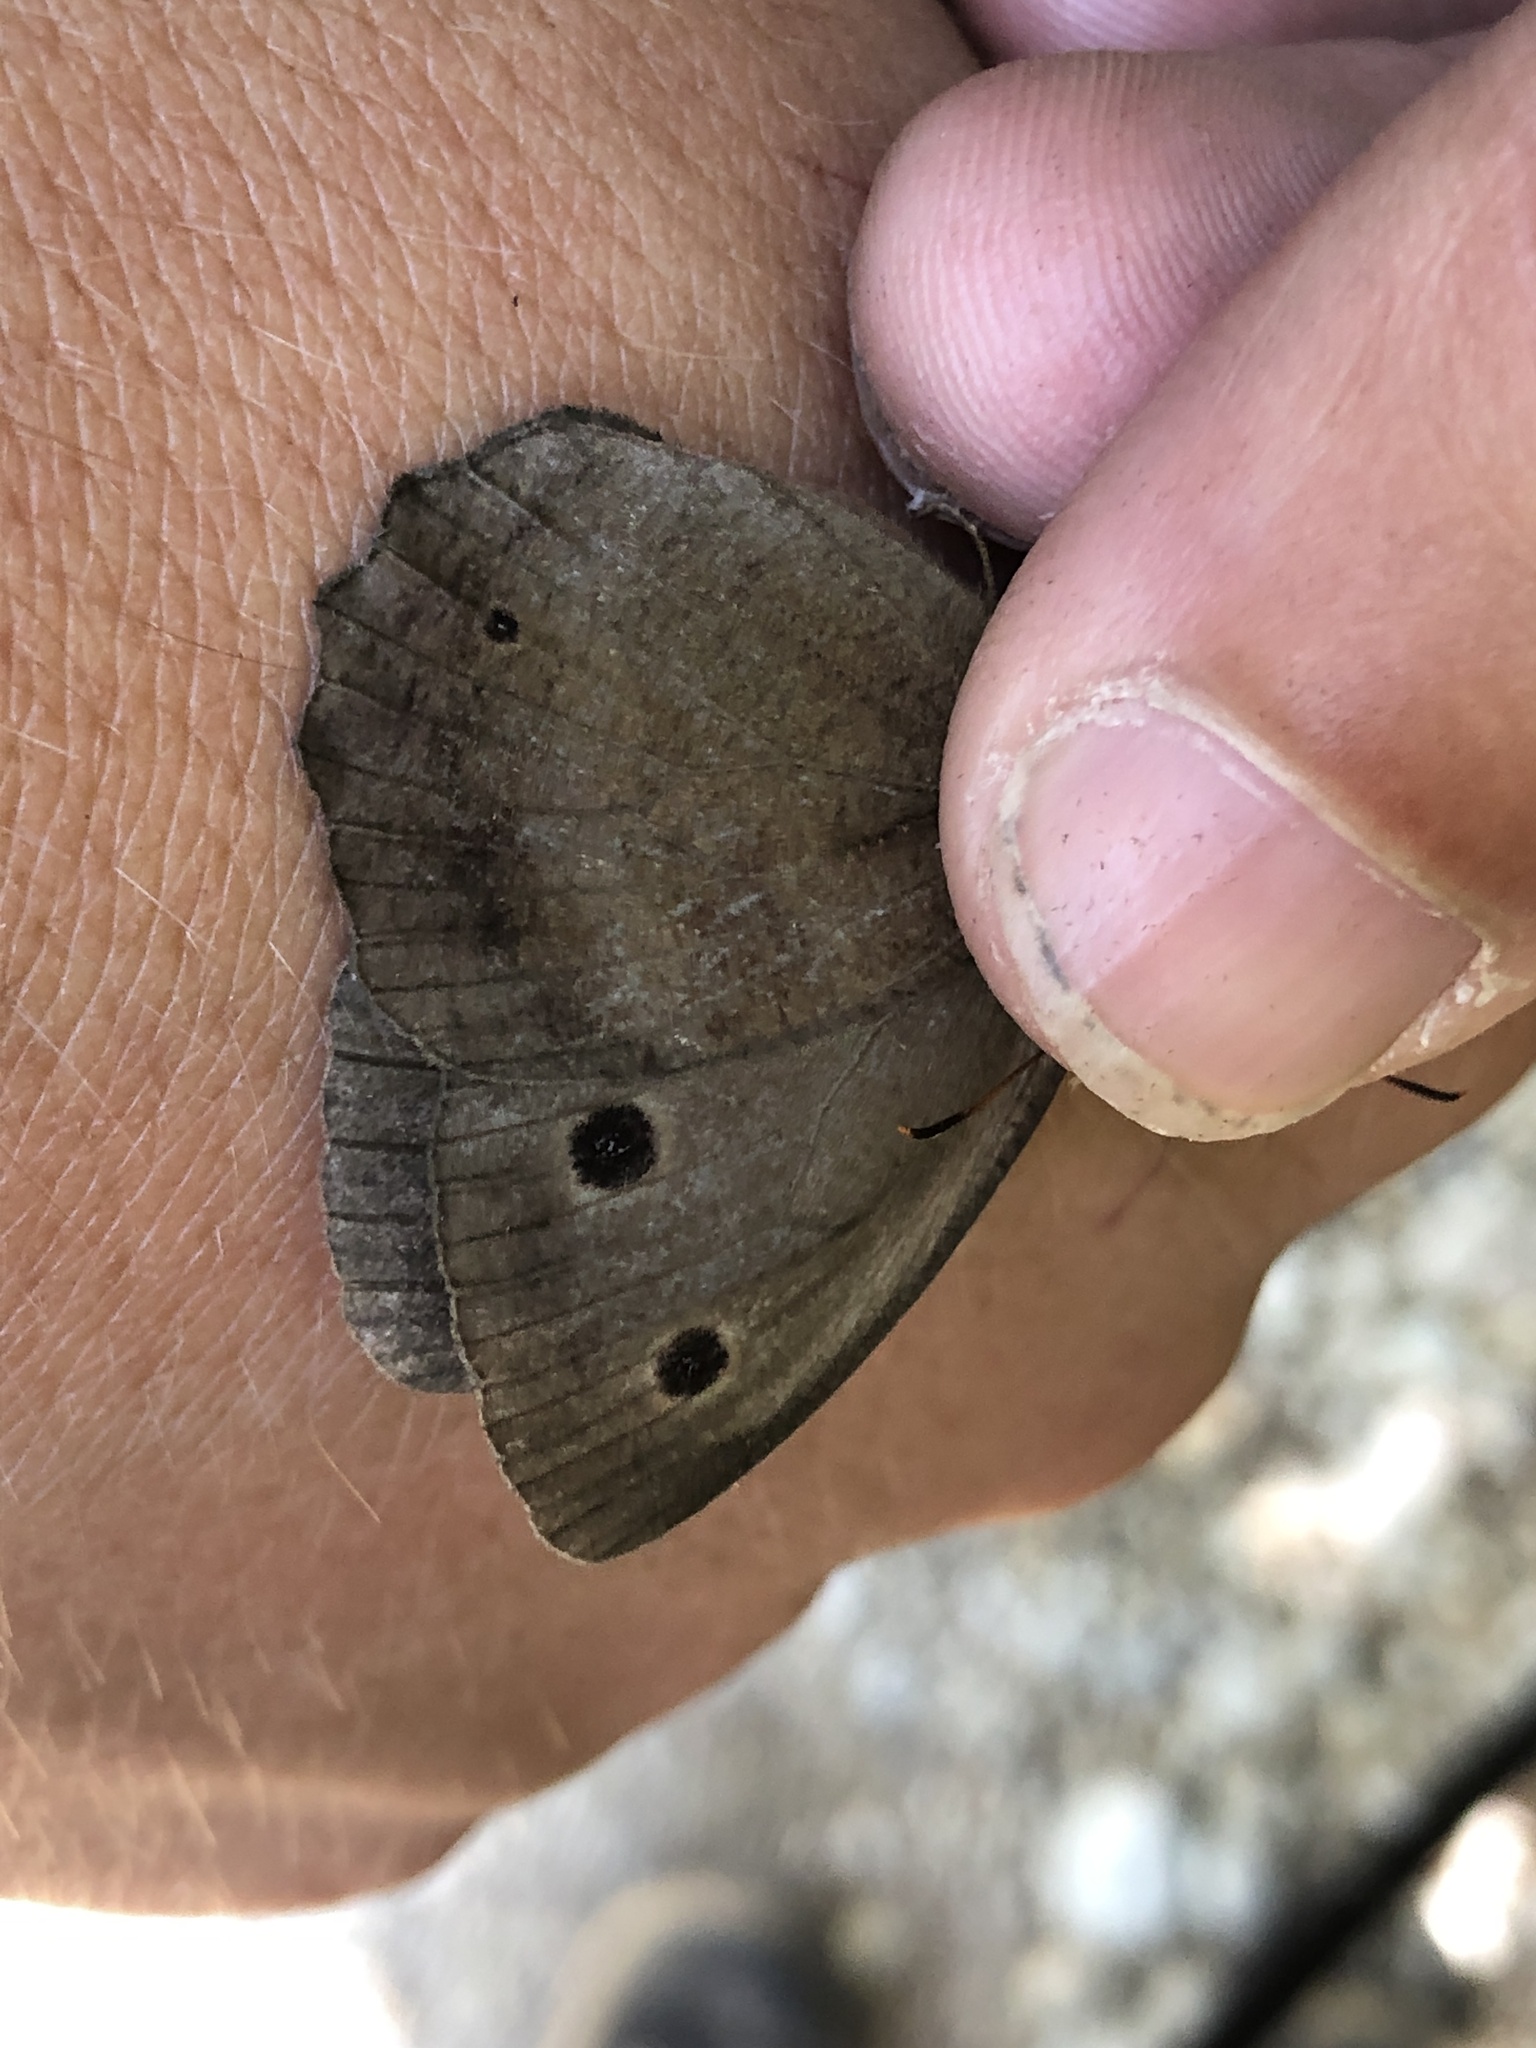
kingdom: Animalia
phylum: Arthropoda
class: Insecta
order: Lepidoptera
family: Nymphalidae
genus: Minois
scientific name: Minois dryas
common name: Dryad
